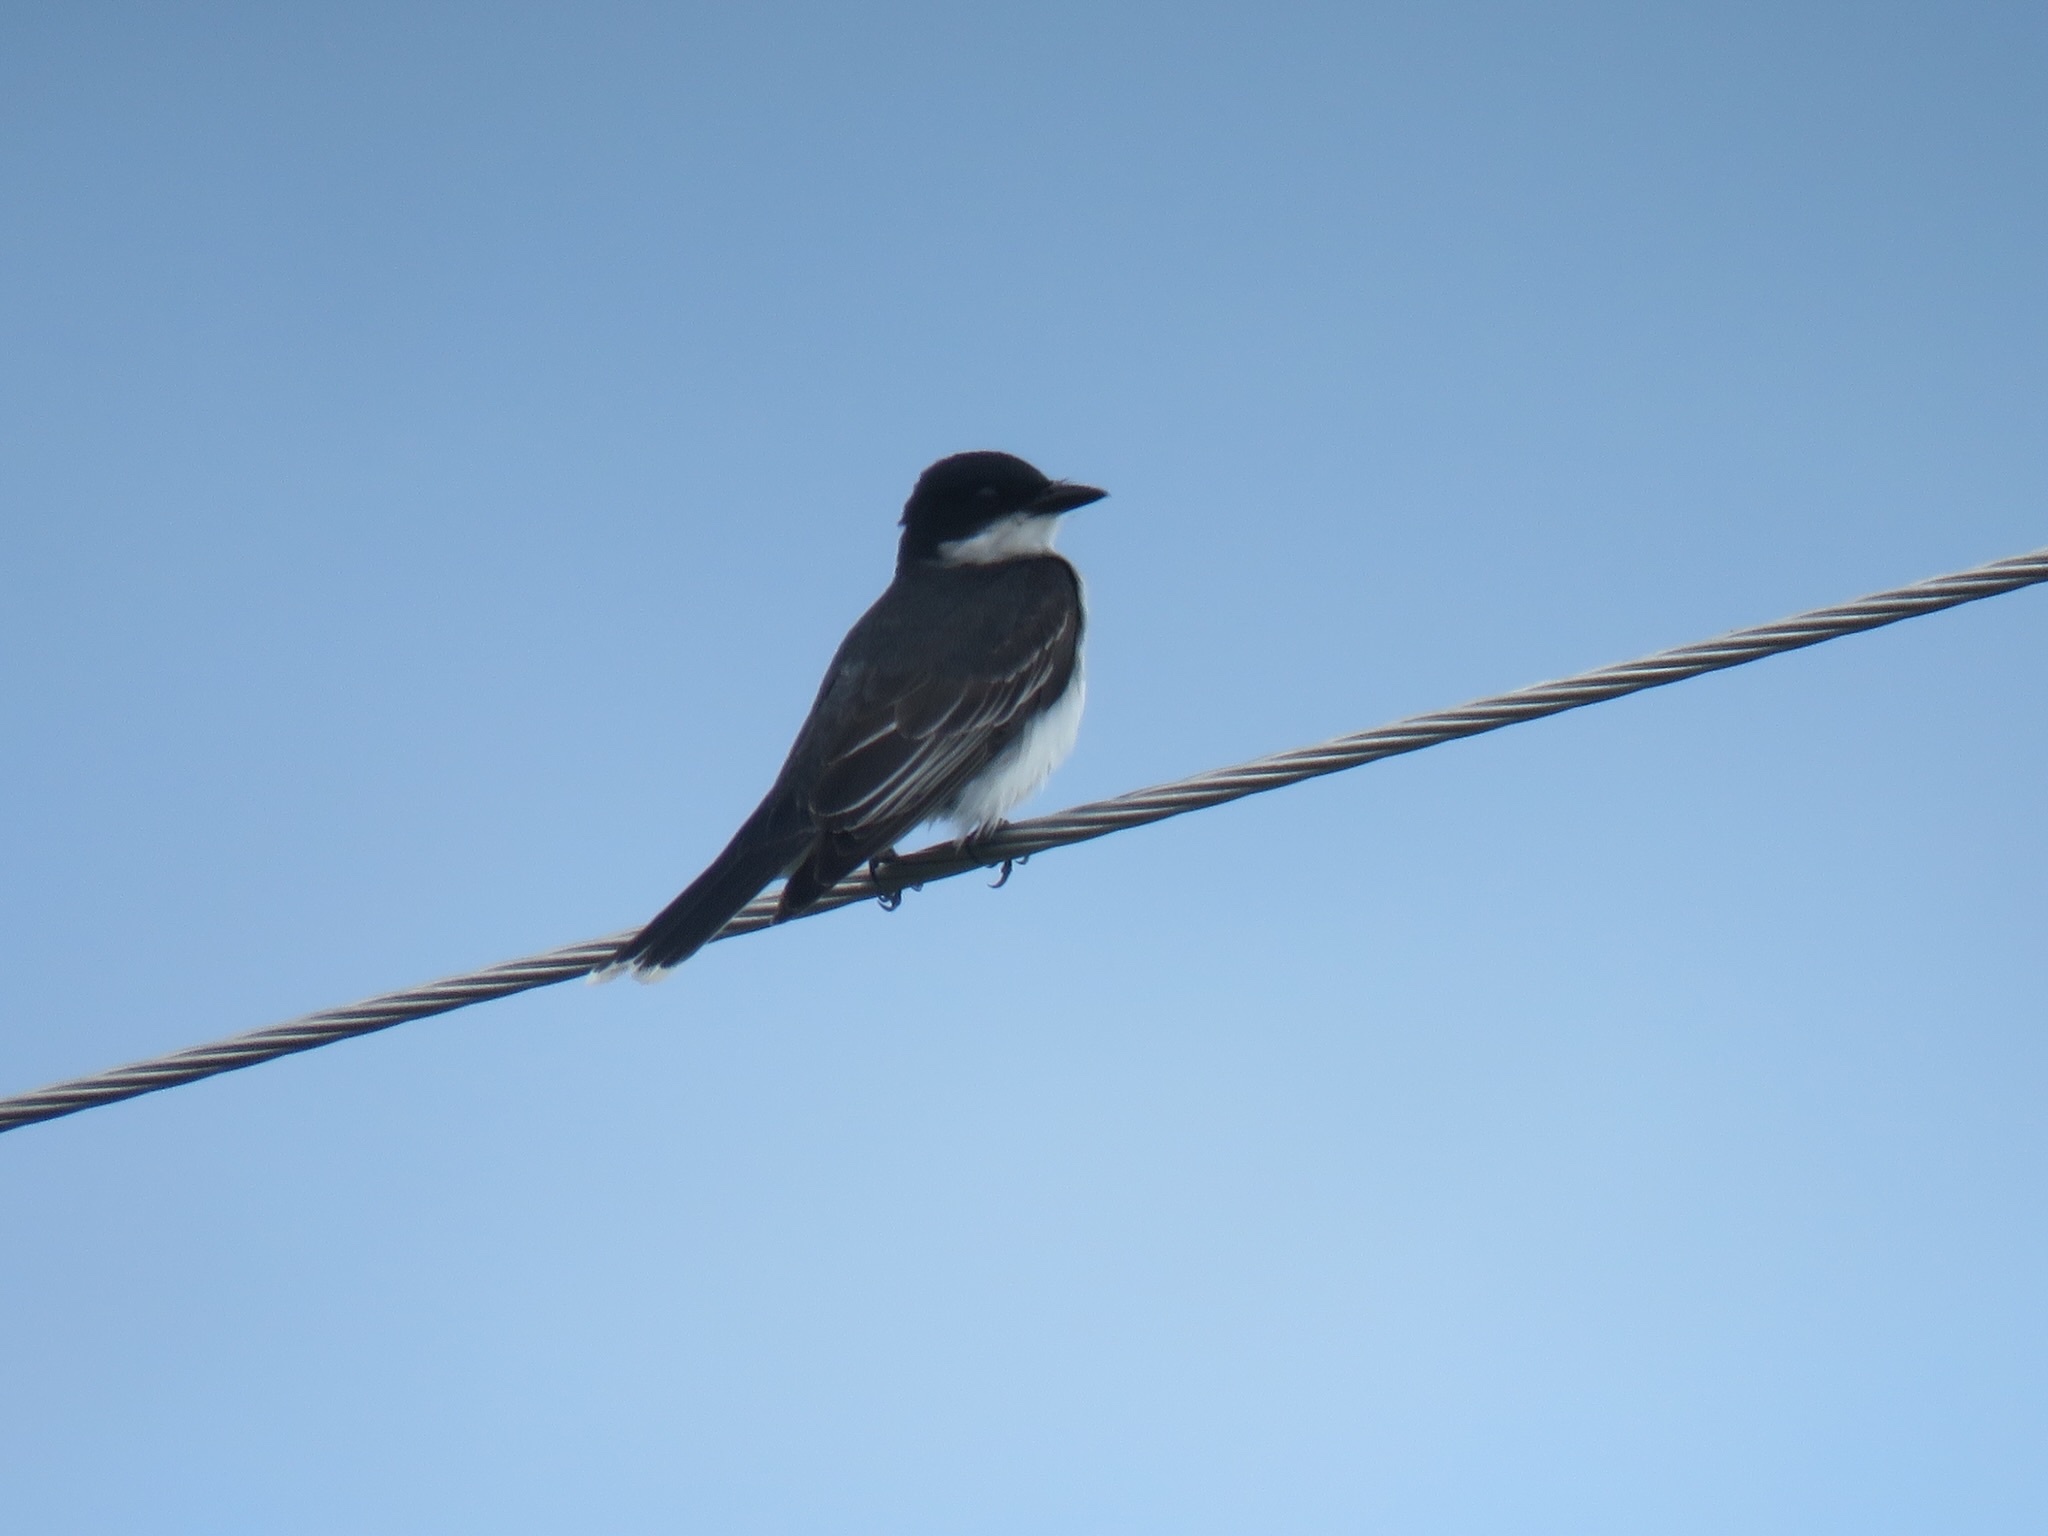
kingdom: Animalia
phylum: Chordata
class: Aves
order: Passeriformes
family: Tyrannidae
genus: Tyrannus
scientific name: Tyrannus tyrannus
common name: Eastern kingbird
